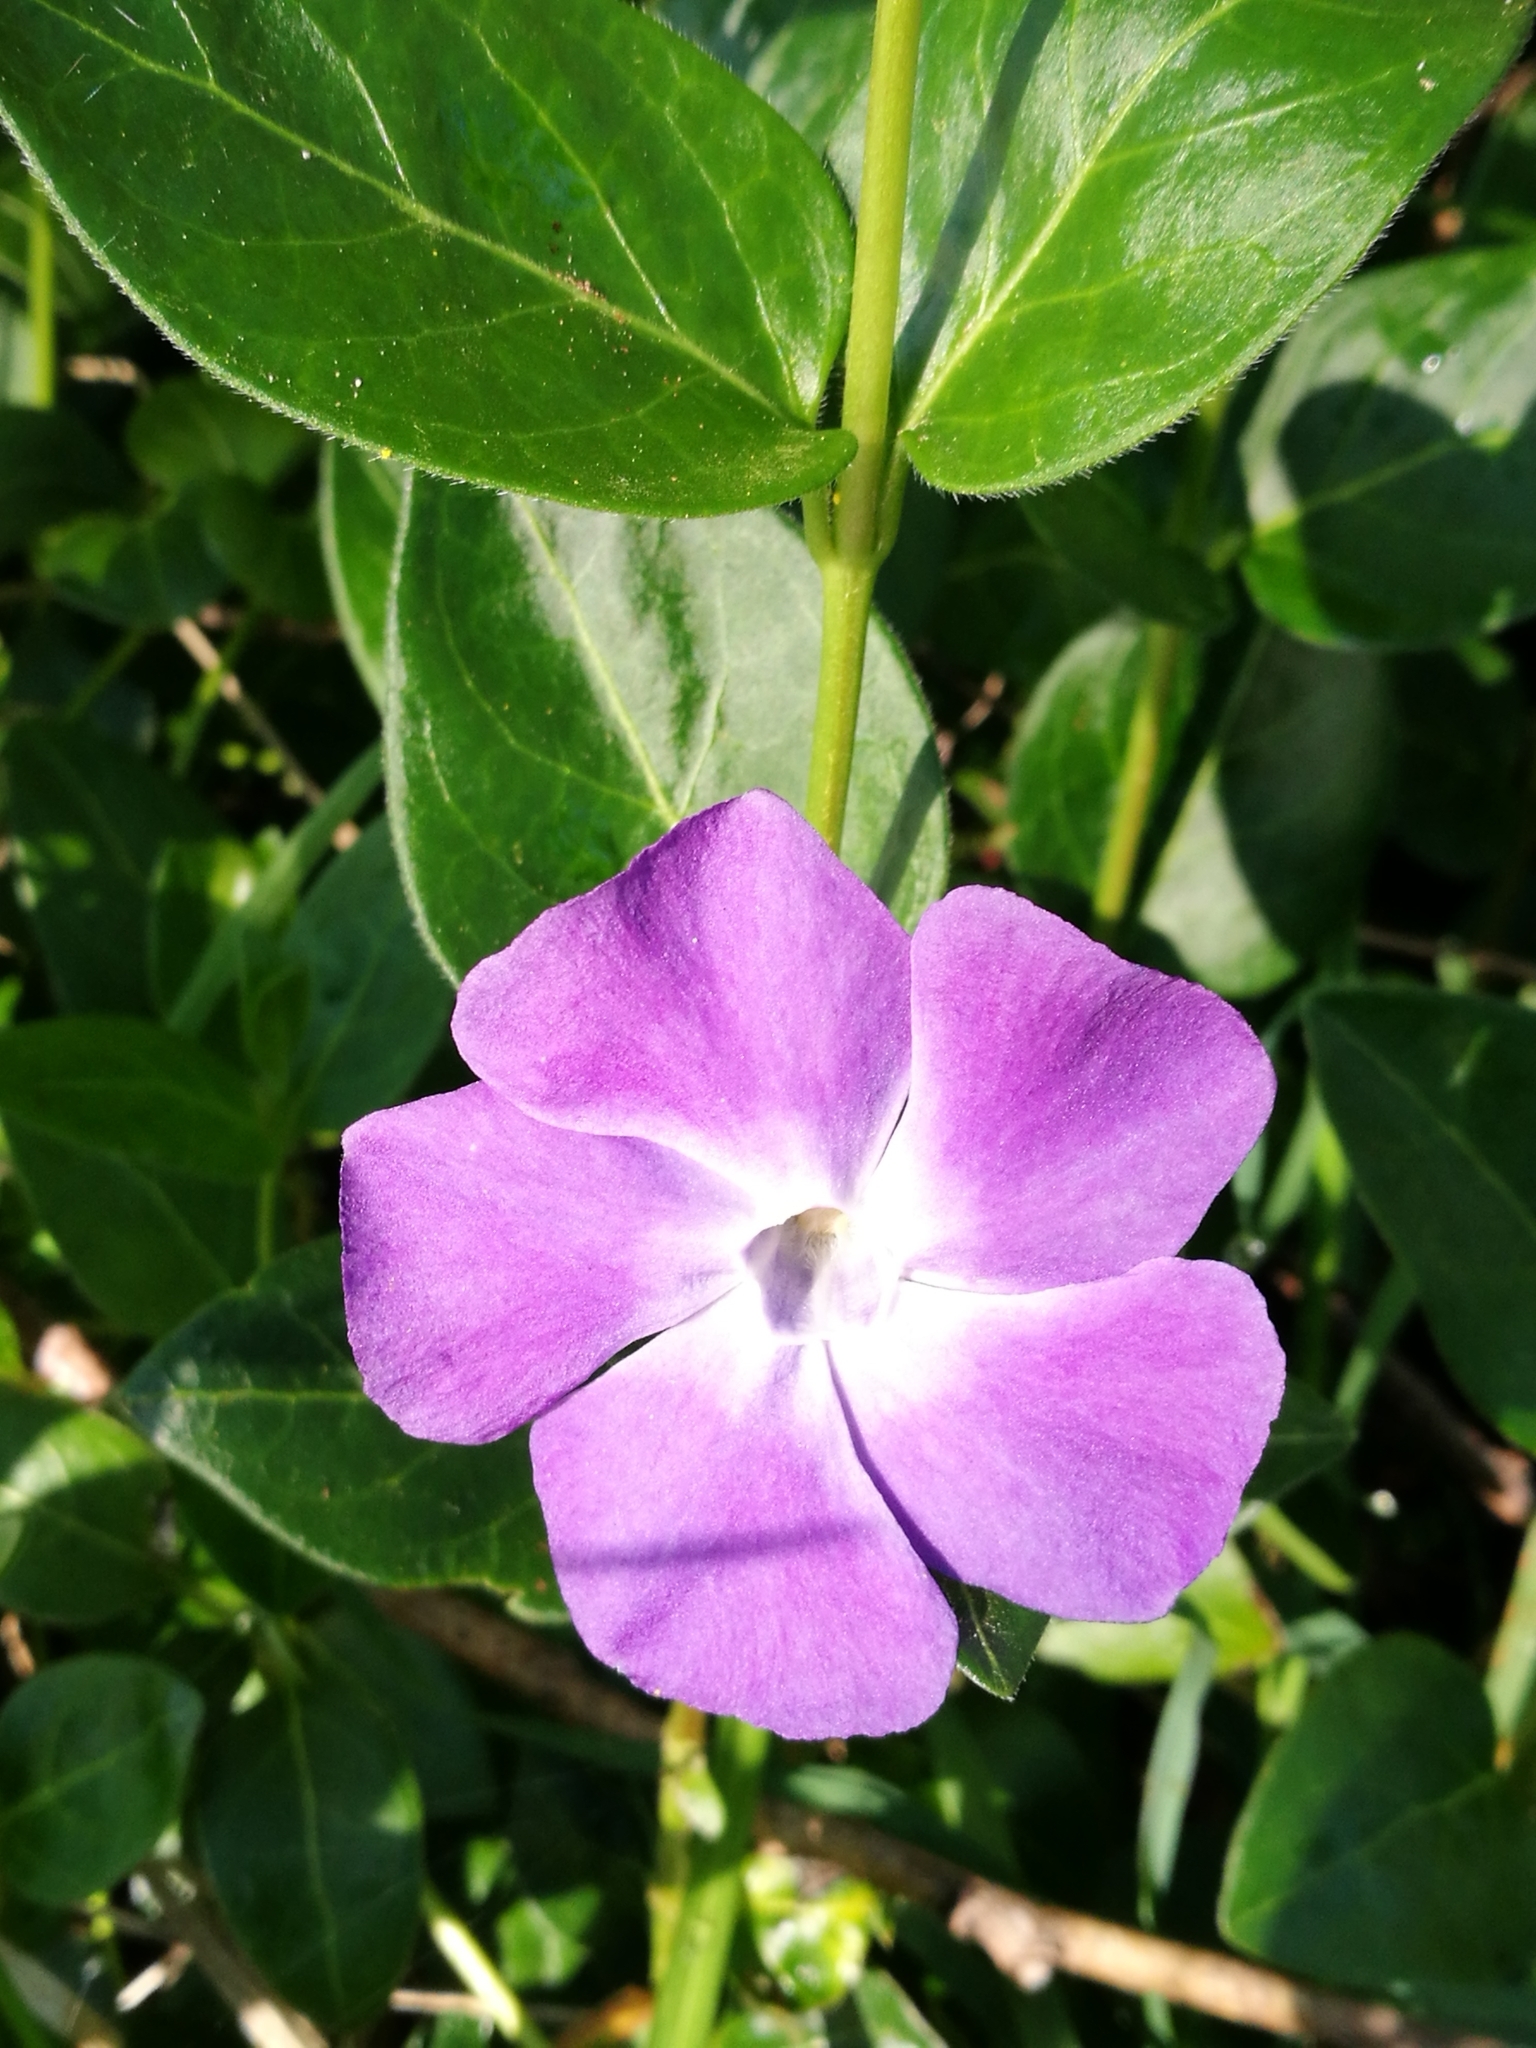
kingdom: Plantae
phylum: Tracheophyta
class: Magnoliopsida
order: Gentianales
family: Apocynaceae
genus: Vinca
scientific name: Vinca major
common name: Greater periwinkle
